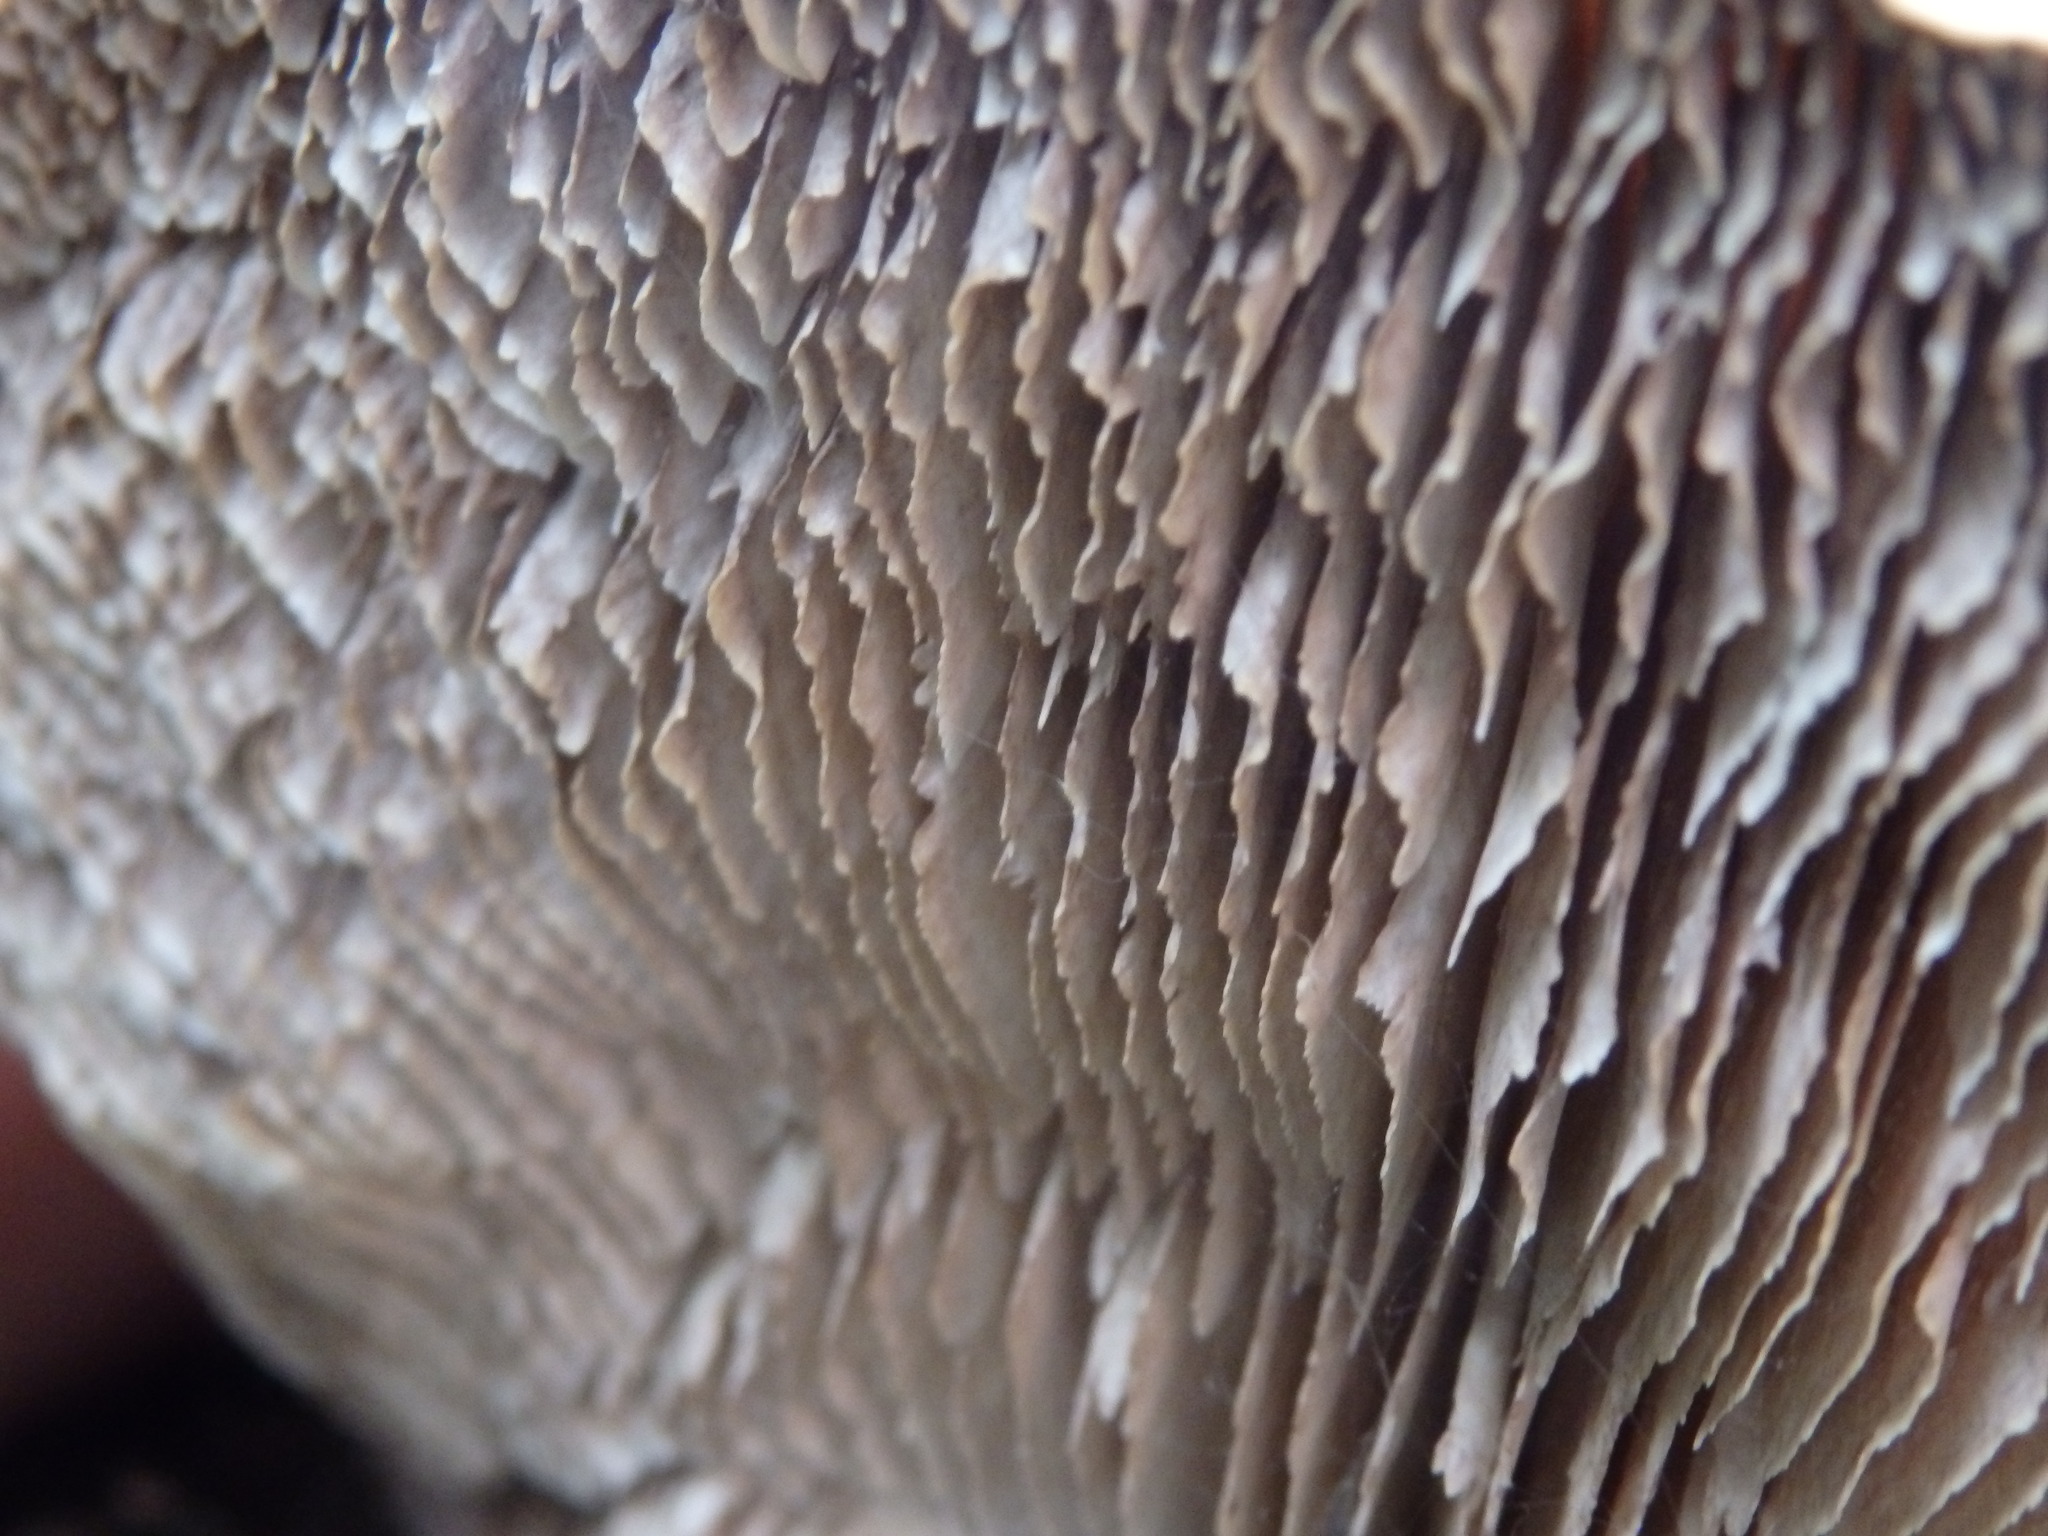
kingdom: Fungi
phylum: Basidiomycota
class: Agaricomycetes
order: Polyporales
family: Polyporaceae
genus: Lenzites
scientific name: Lenzites betulinus
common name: Birch mazegill
